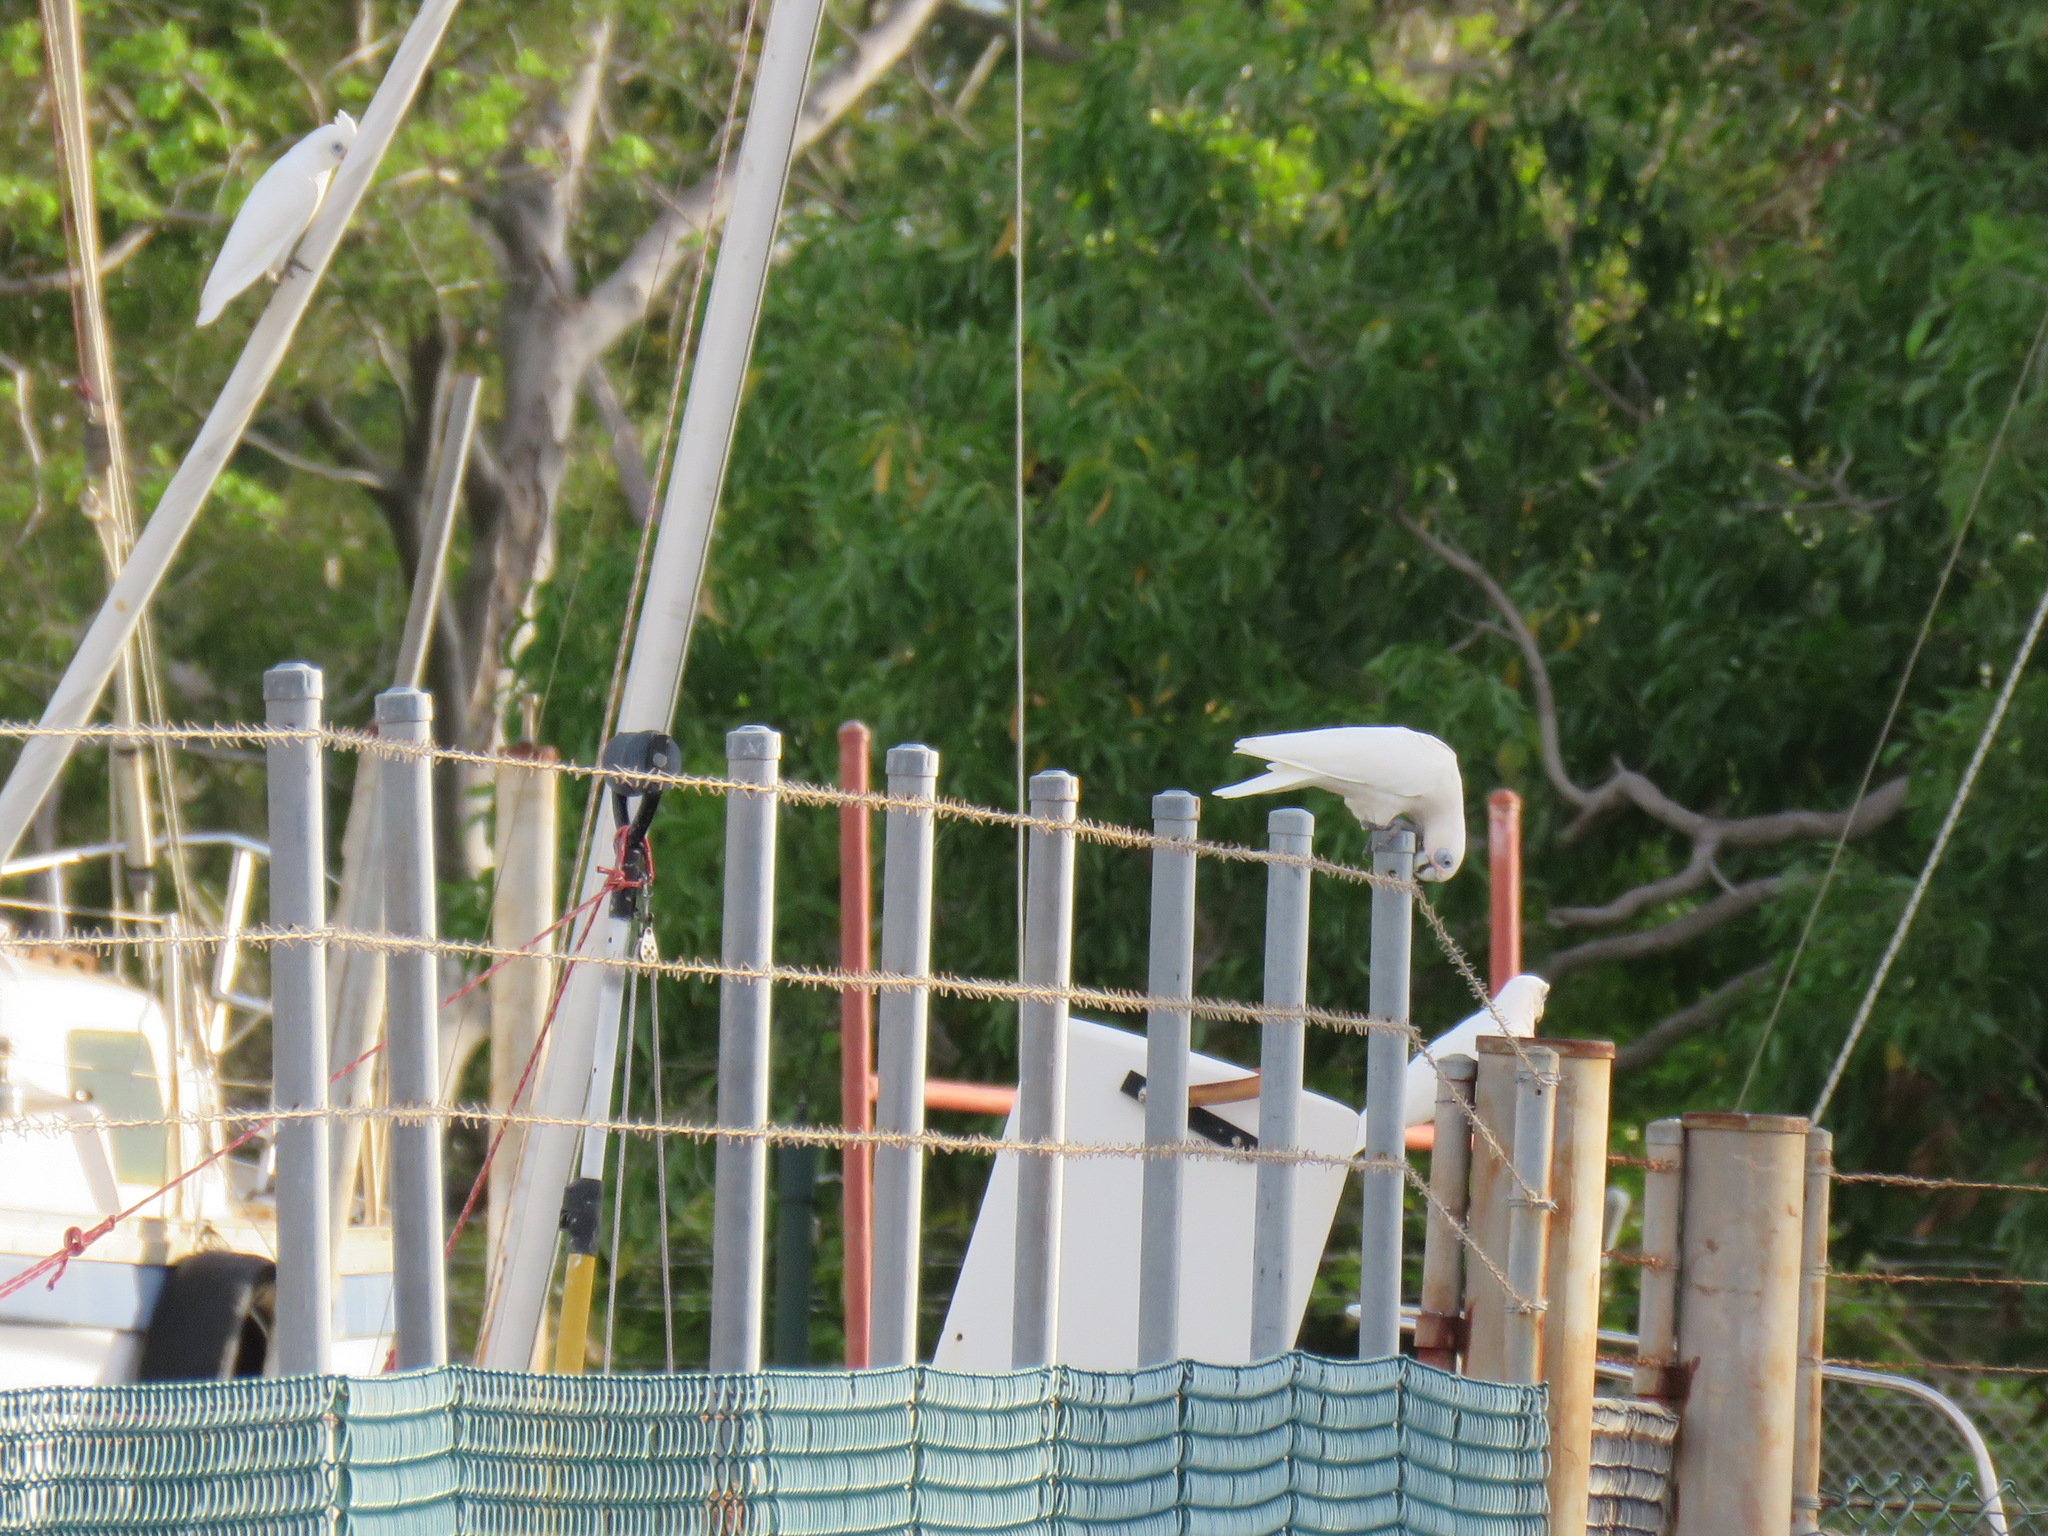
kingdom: Animalia
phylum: Chordata
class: Aves
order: Psittaciformes
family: Psittacidae
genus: Cacatua
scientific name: Cacatua sanguinea
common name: Little corella
